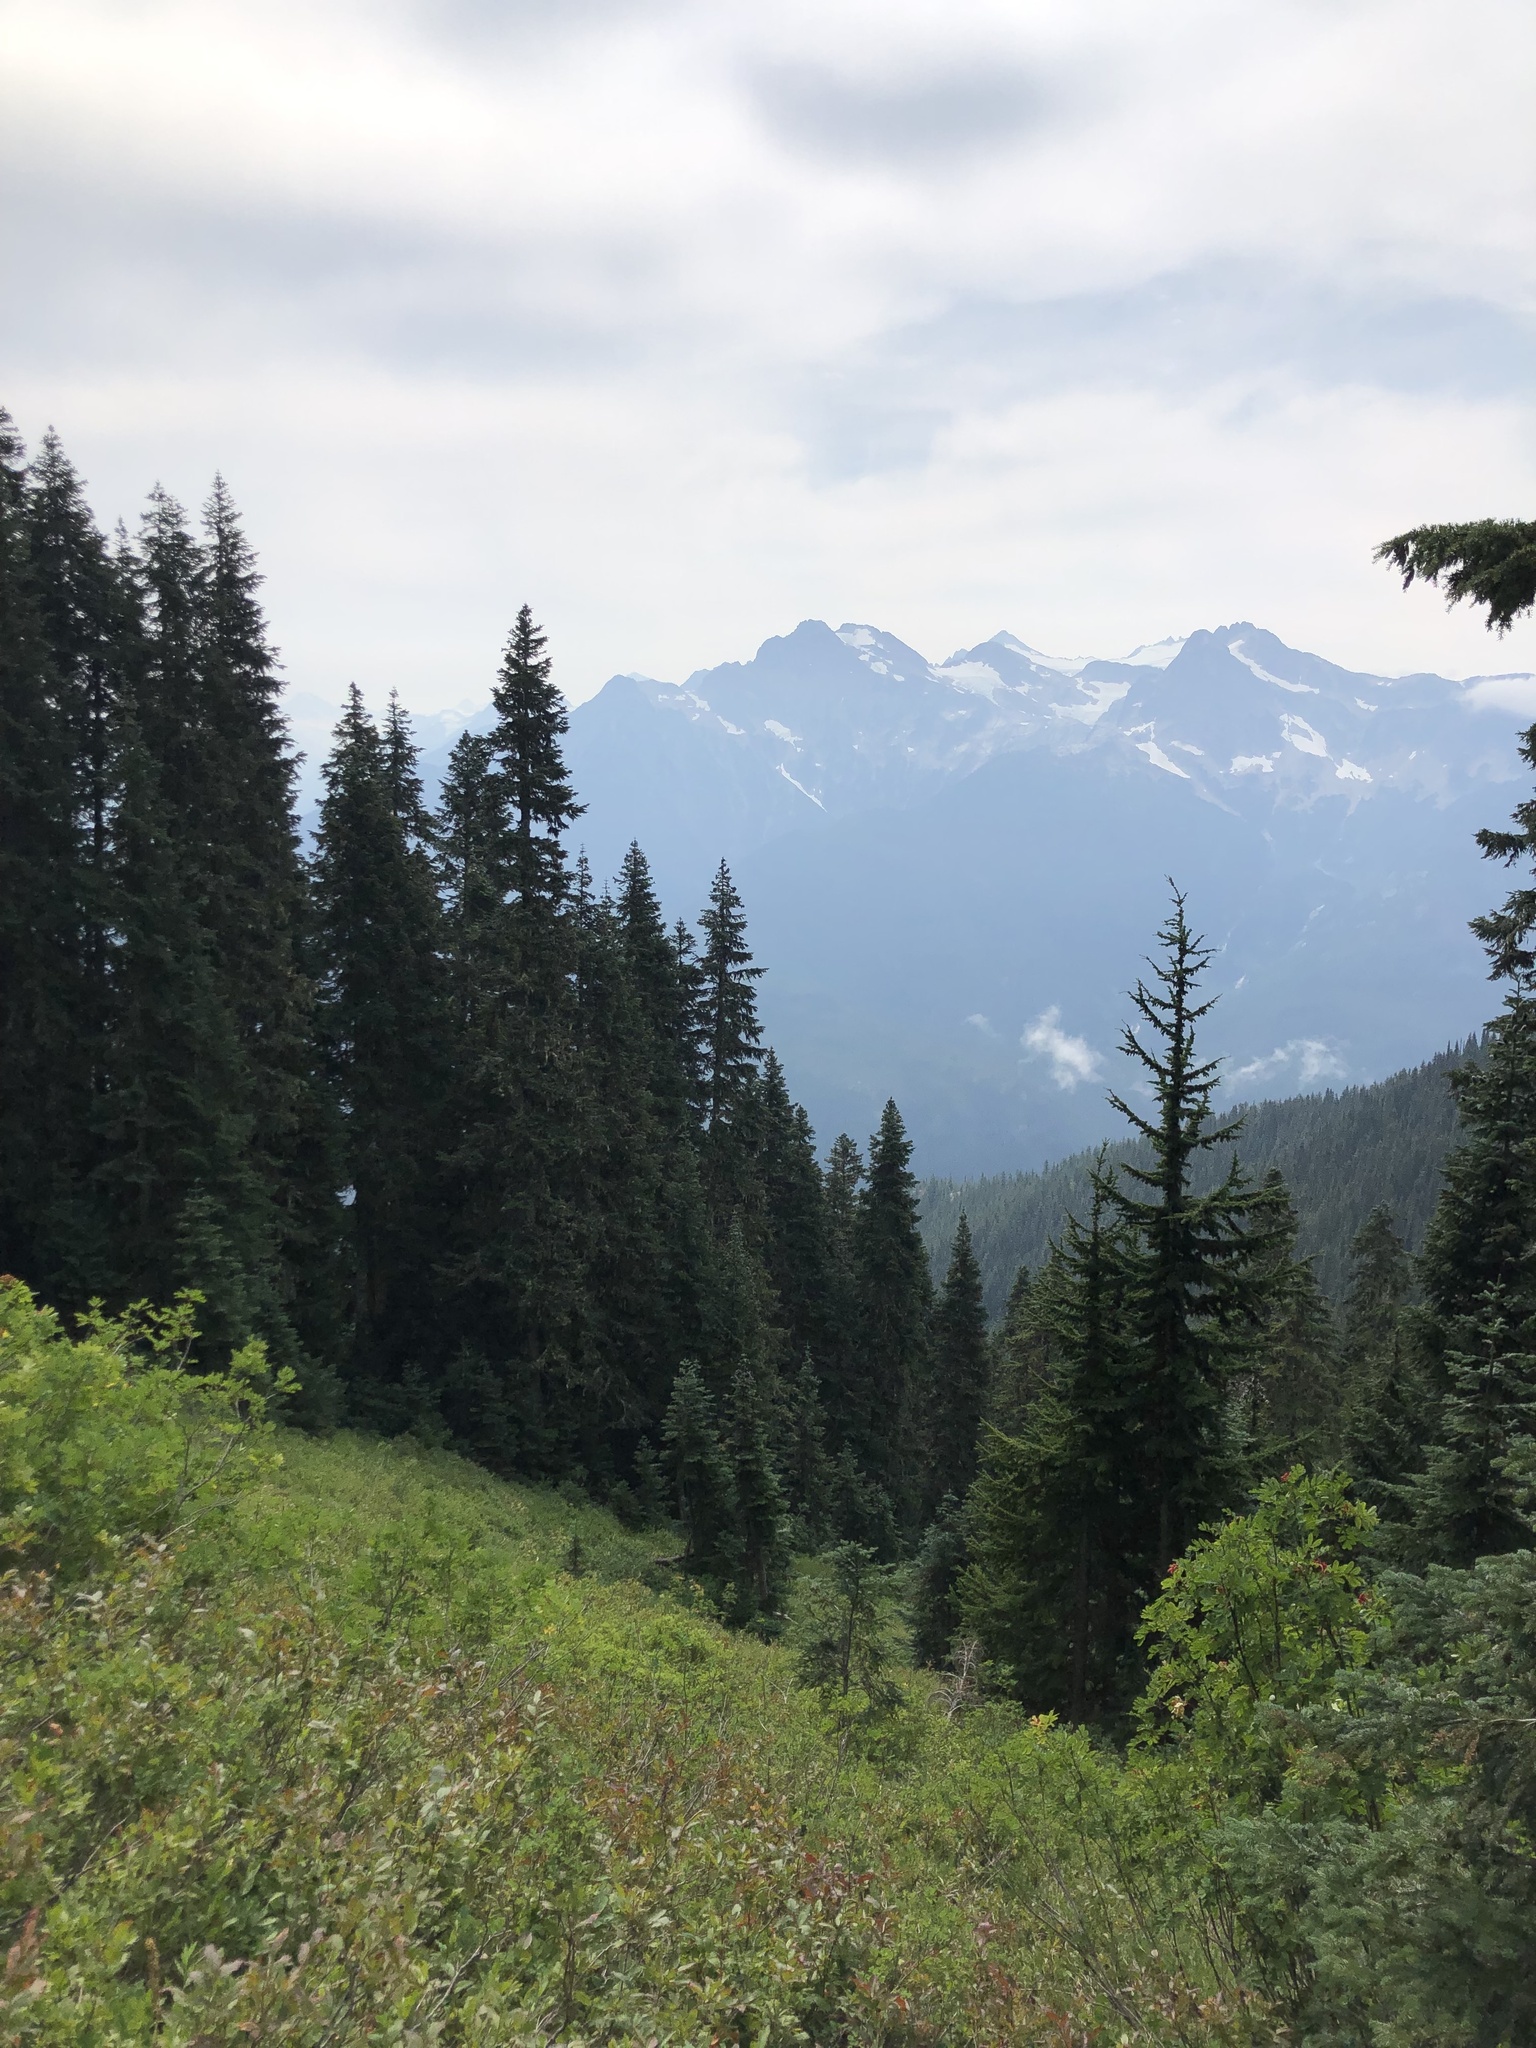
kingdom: Plantae
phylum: Tracheophyta
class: Pinopsida
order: Pinales
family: Pinaceae
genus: Tsuga
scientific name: Tsuga mertensiana
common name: Mountain hemlock
